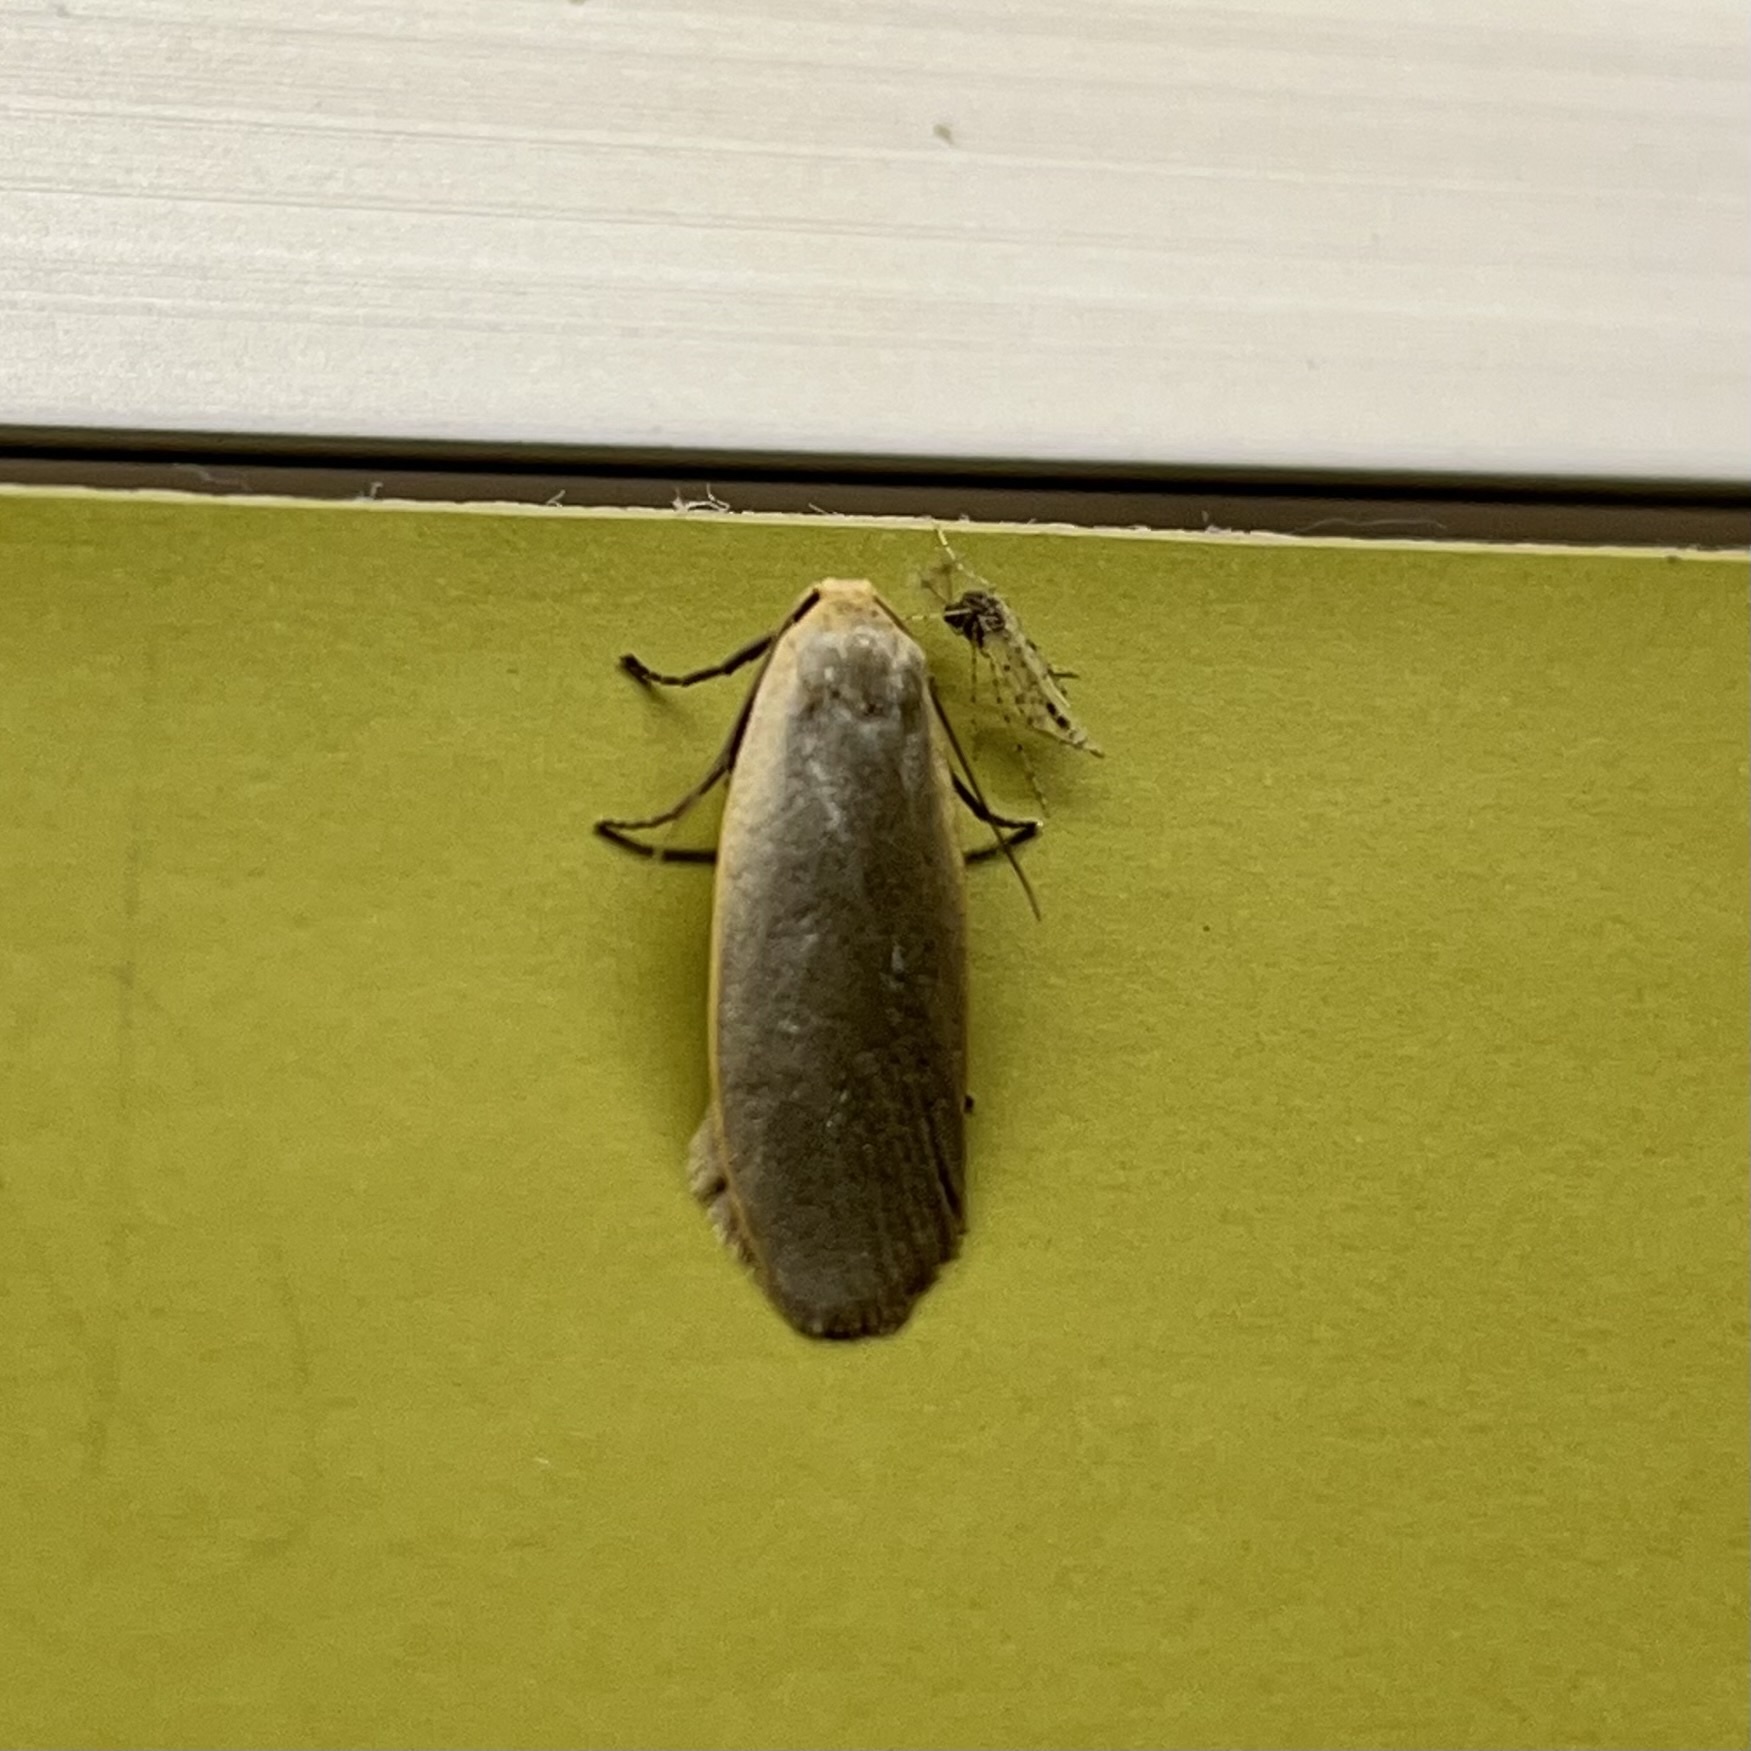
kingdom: Animalia
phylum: Arthropoda
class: Insecta
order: Lepidoptera
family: Erebidae
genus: Collita
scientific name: Collita griseola
